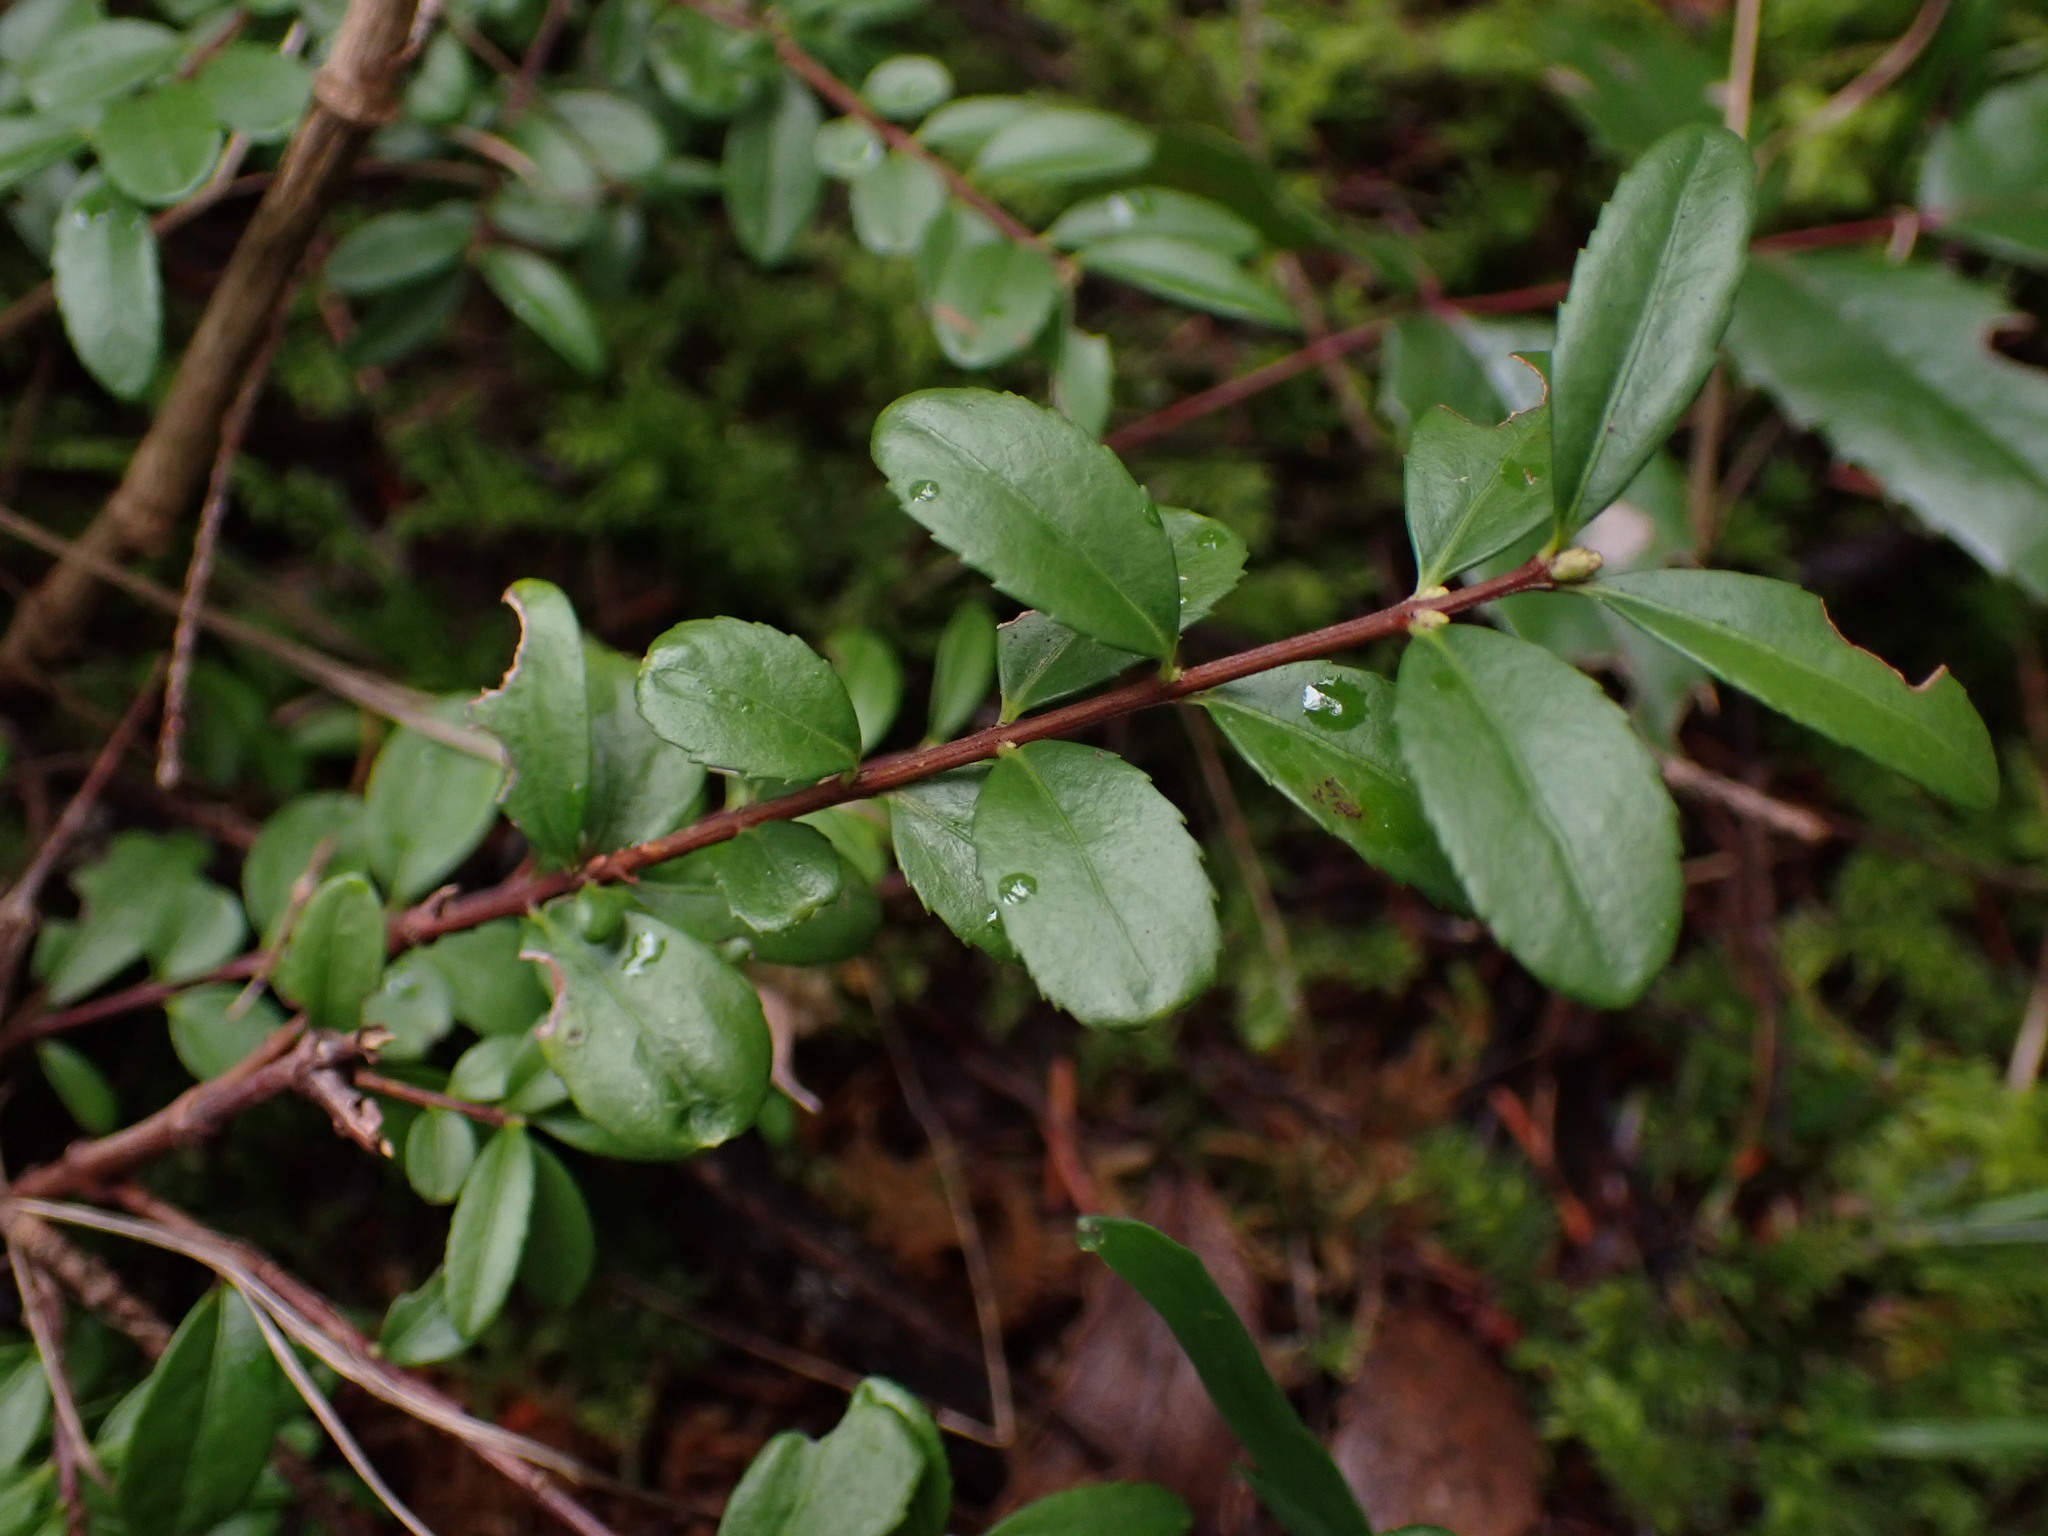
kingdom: Plantae
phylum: Tracheophyta
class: Magnoliopsida
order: Celastrales
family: Celastraceae
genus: Paxistima
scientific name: Paxistima myrsinites
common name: Mountain-lover
